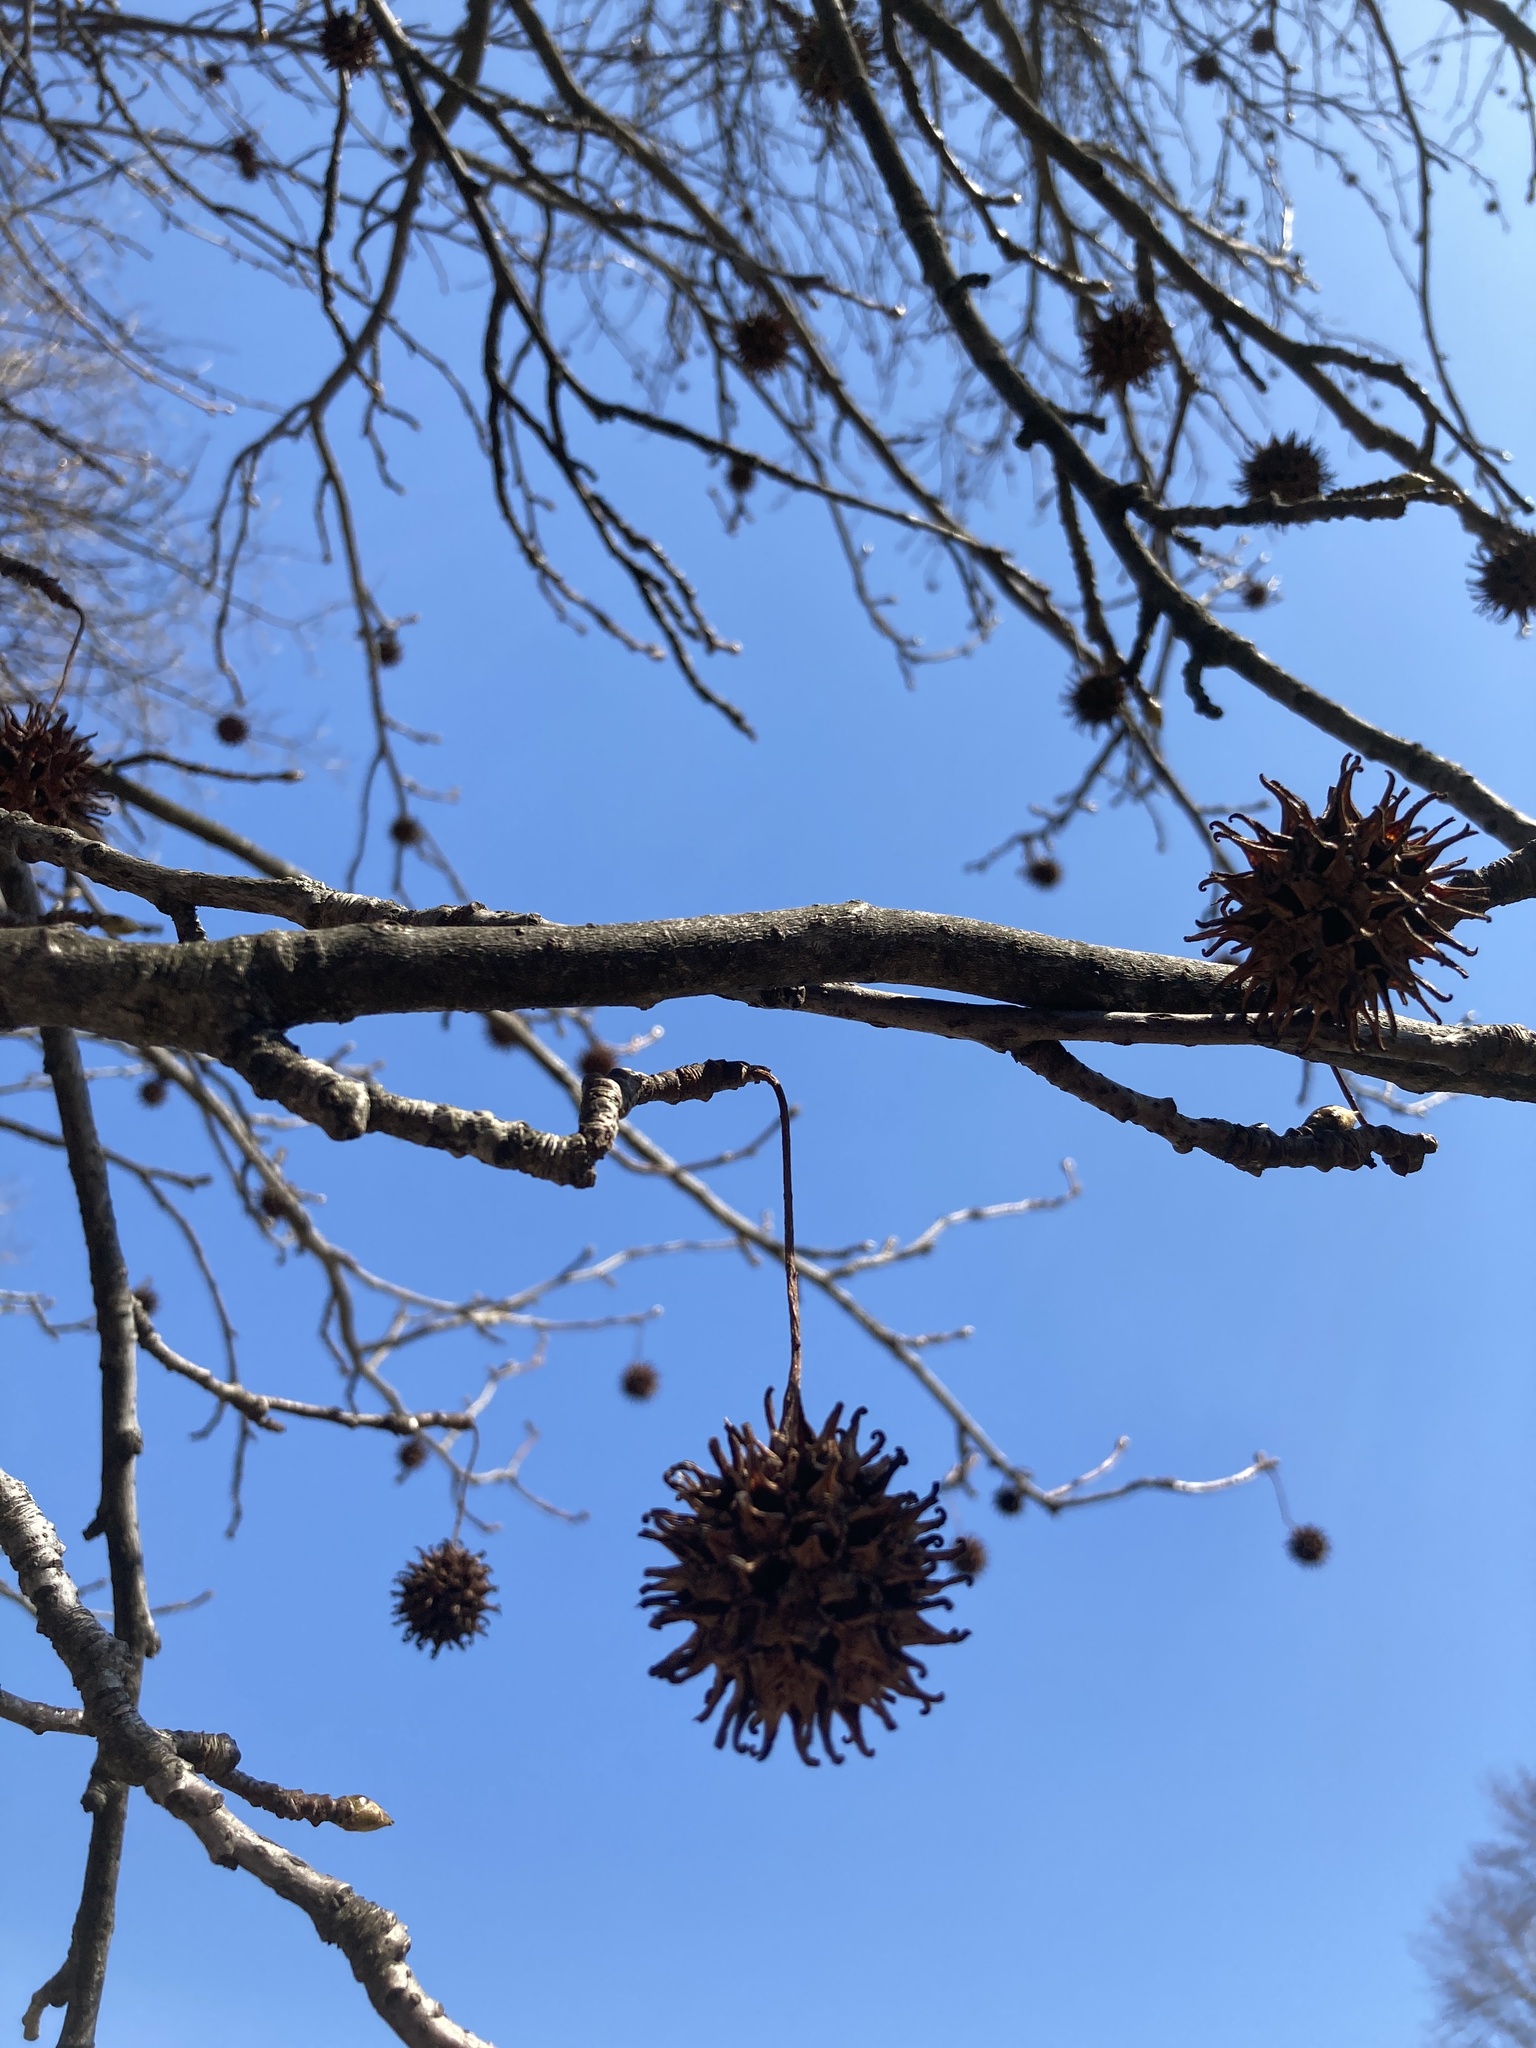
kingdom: Plantae
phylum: Tracheophyta
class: Magnoliopsida
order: Saxifragales
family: Altingiaceae
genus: Liquidambar
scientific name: Liquidambar styraciflua
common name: Sweet gum
